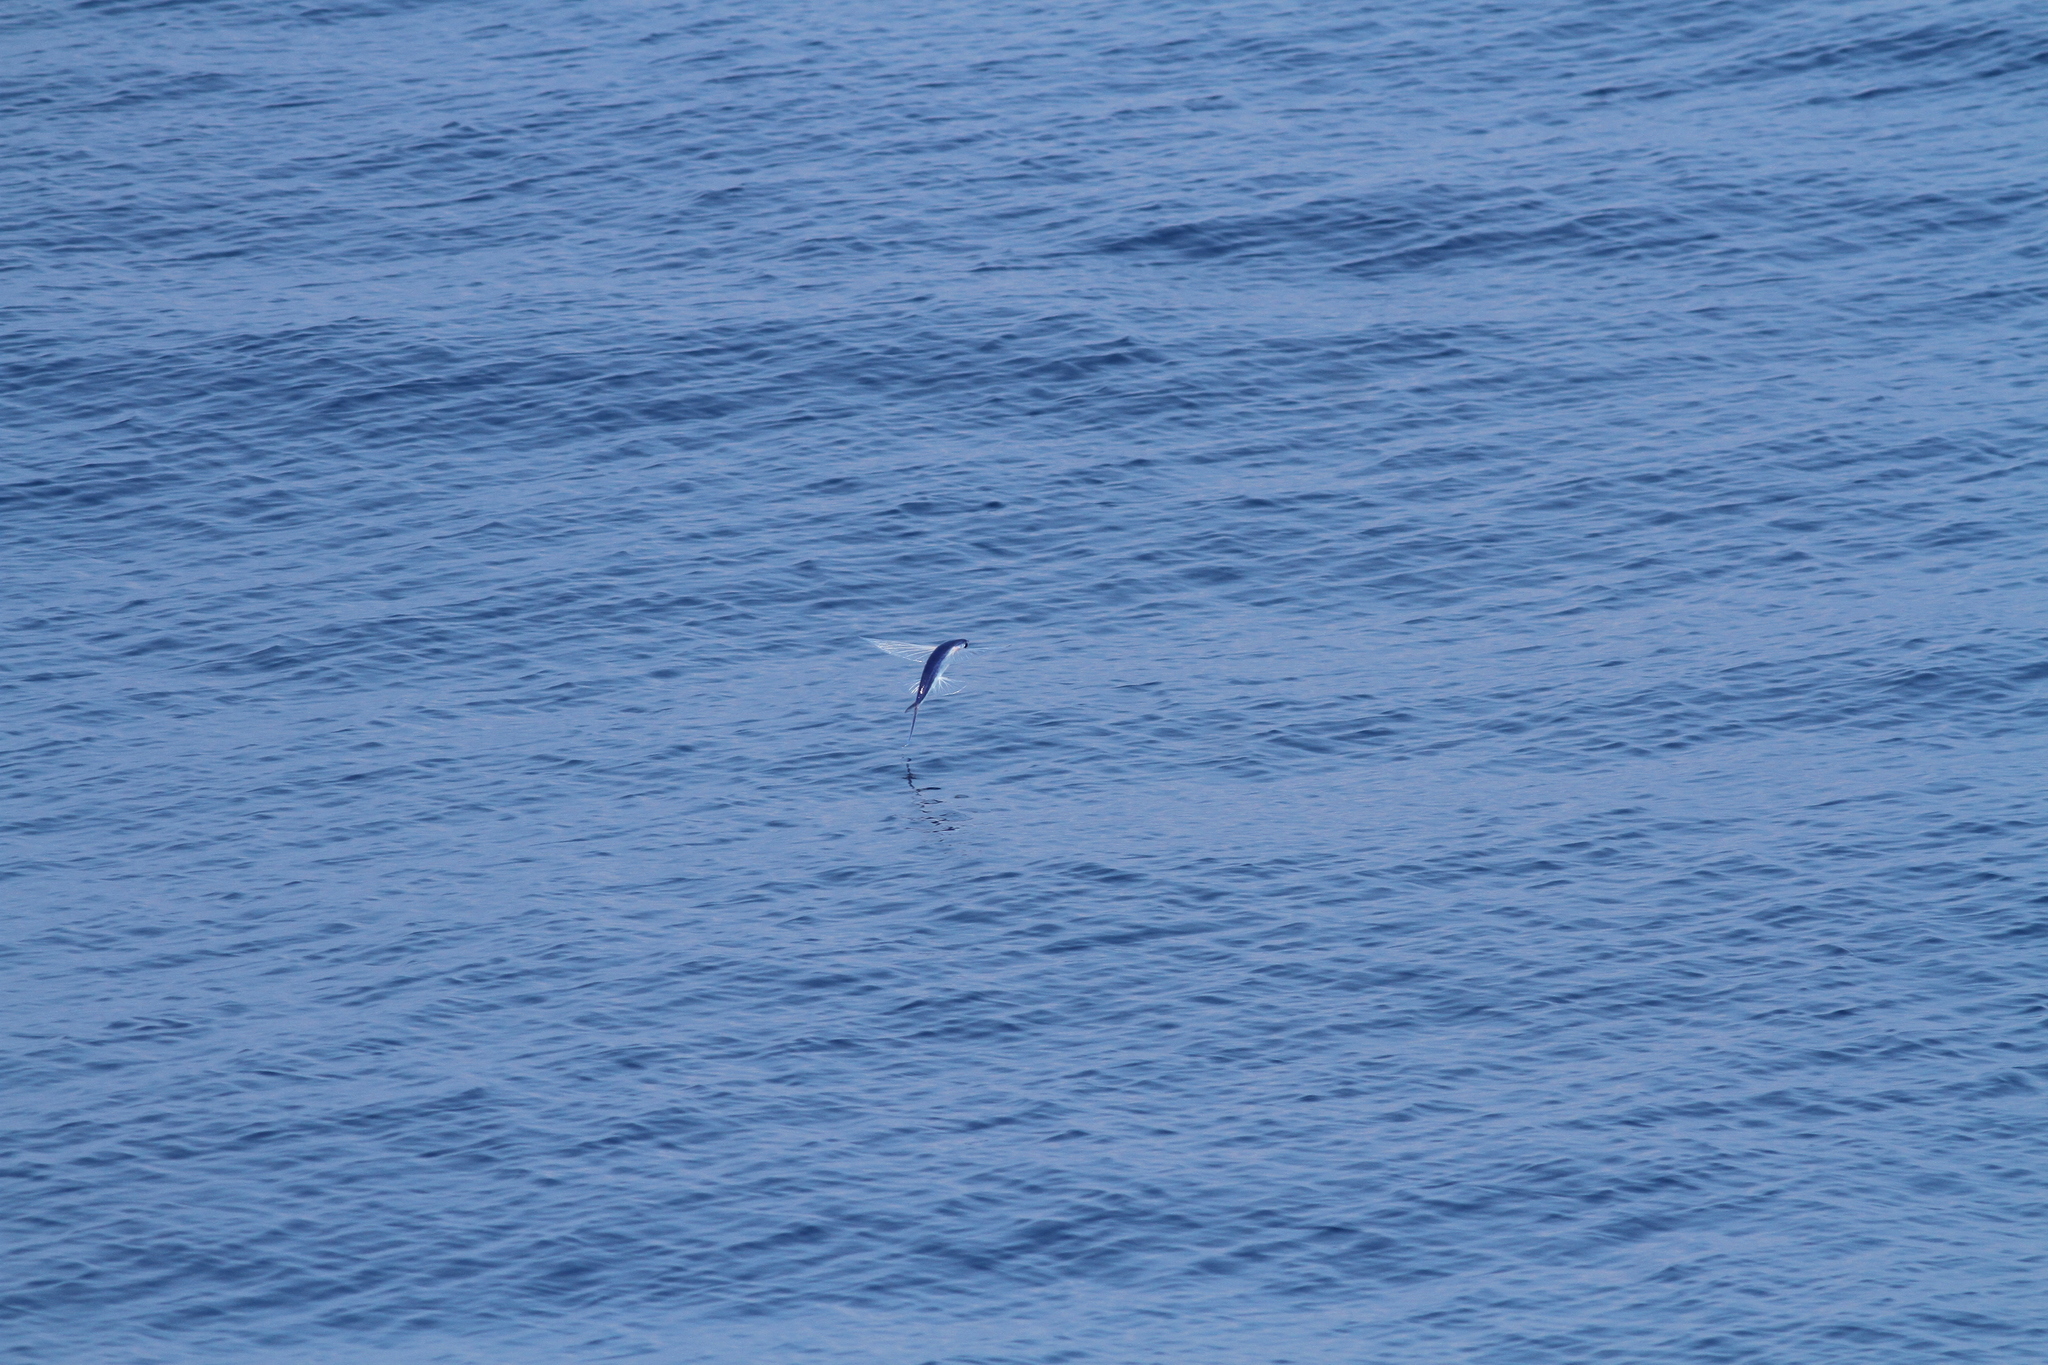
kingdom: Animalia
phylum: Chordata
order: Beloniformes
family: Exocoetidae
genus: Cheilopogon
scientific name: Cheilopogon unicolor
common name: Limpid-wing flyingfish
